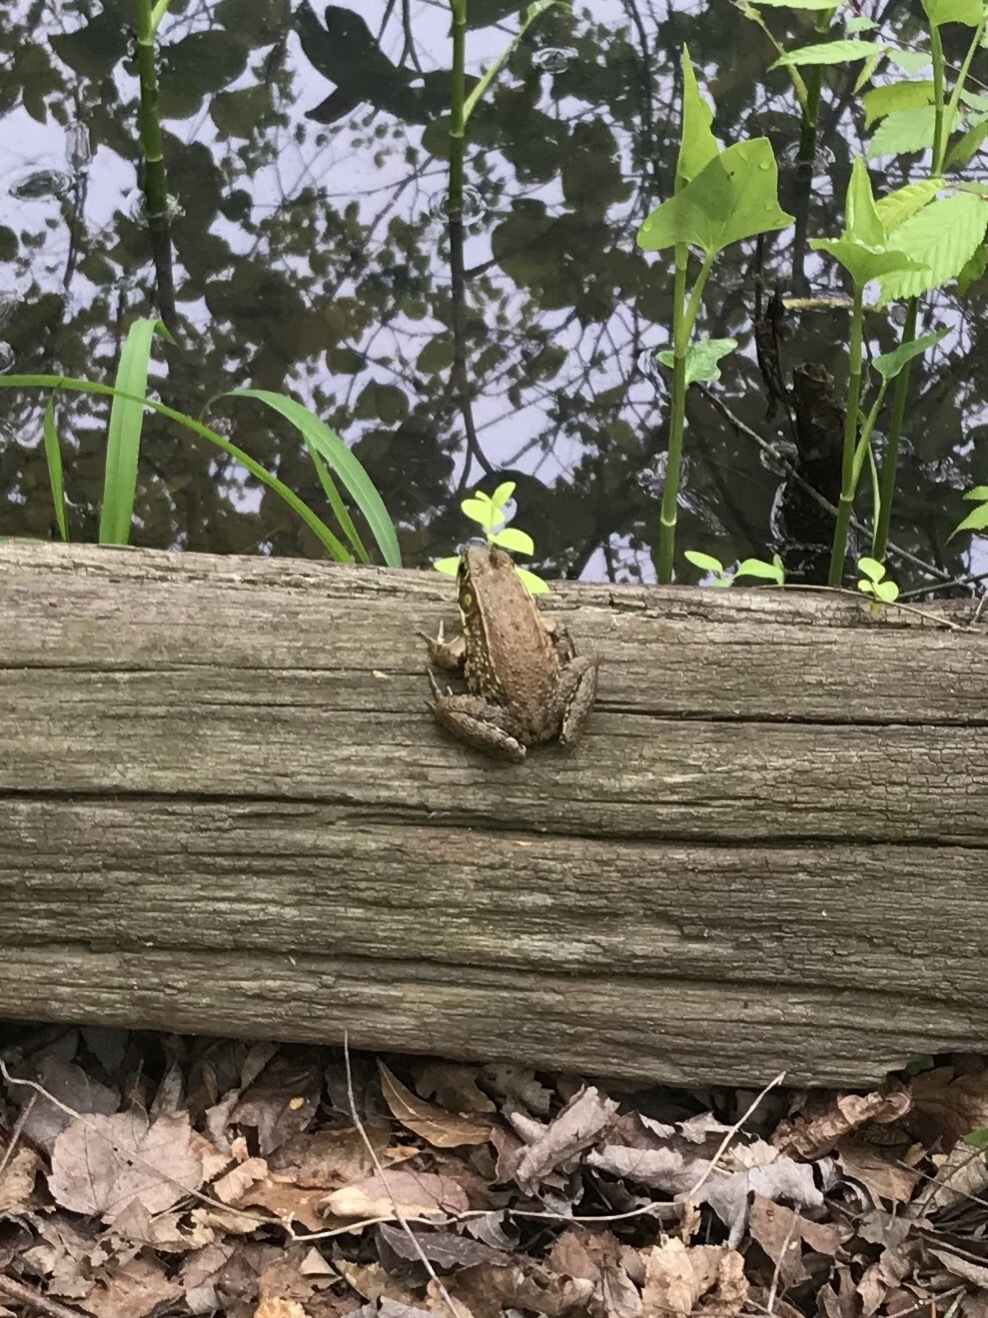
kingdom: Animalia
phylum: Chordata
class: Amphibia
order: Anura
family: Ranidae
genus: Lithobates
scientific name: Lithobates clamitans
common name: Green frog
